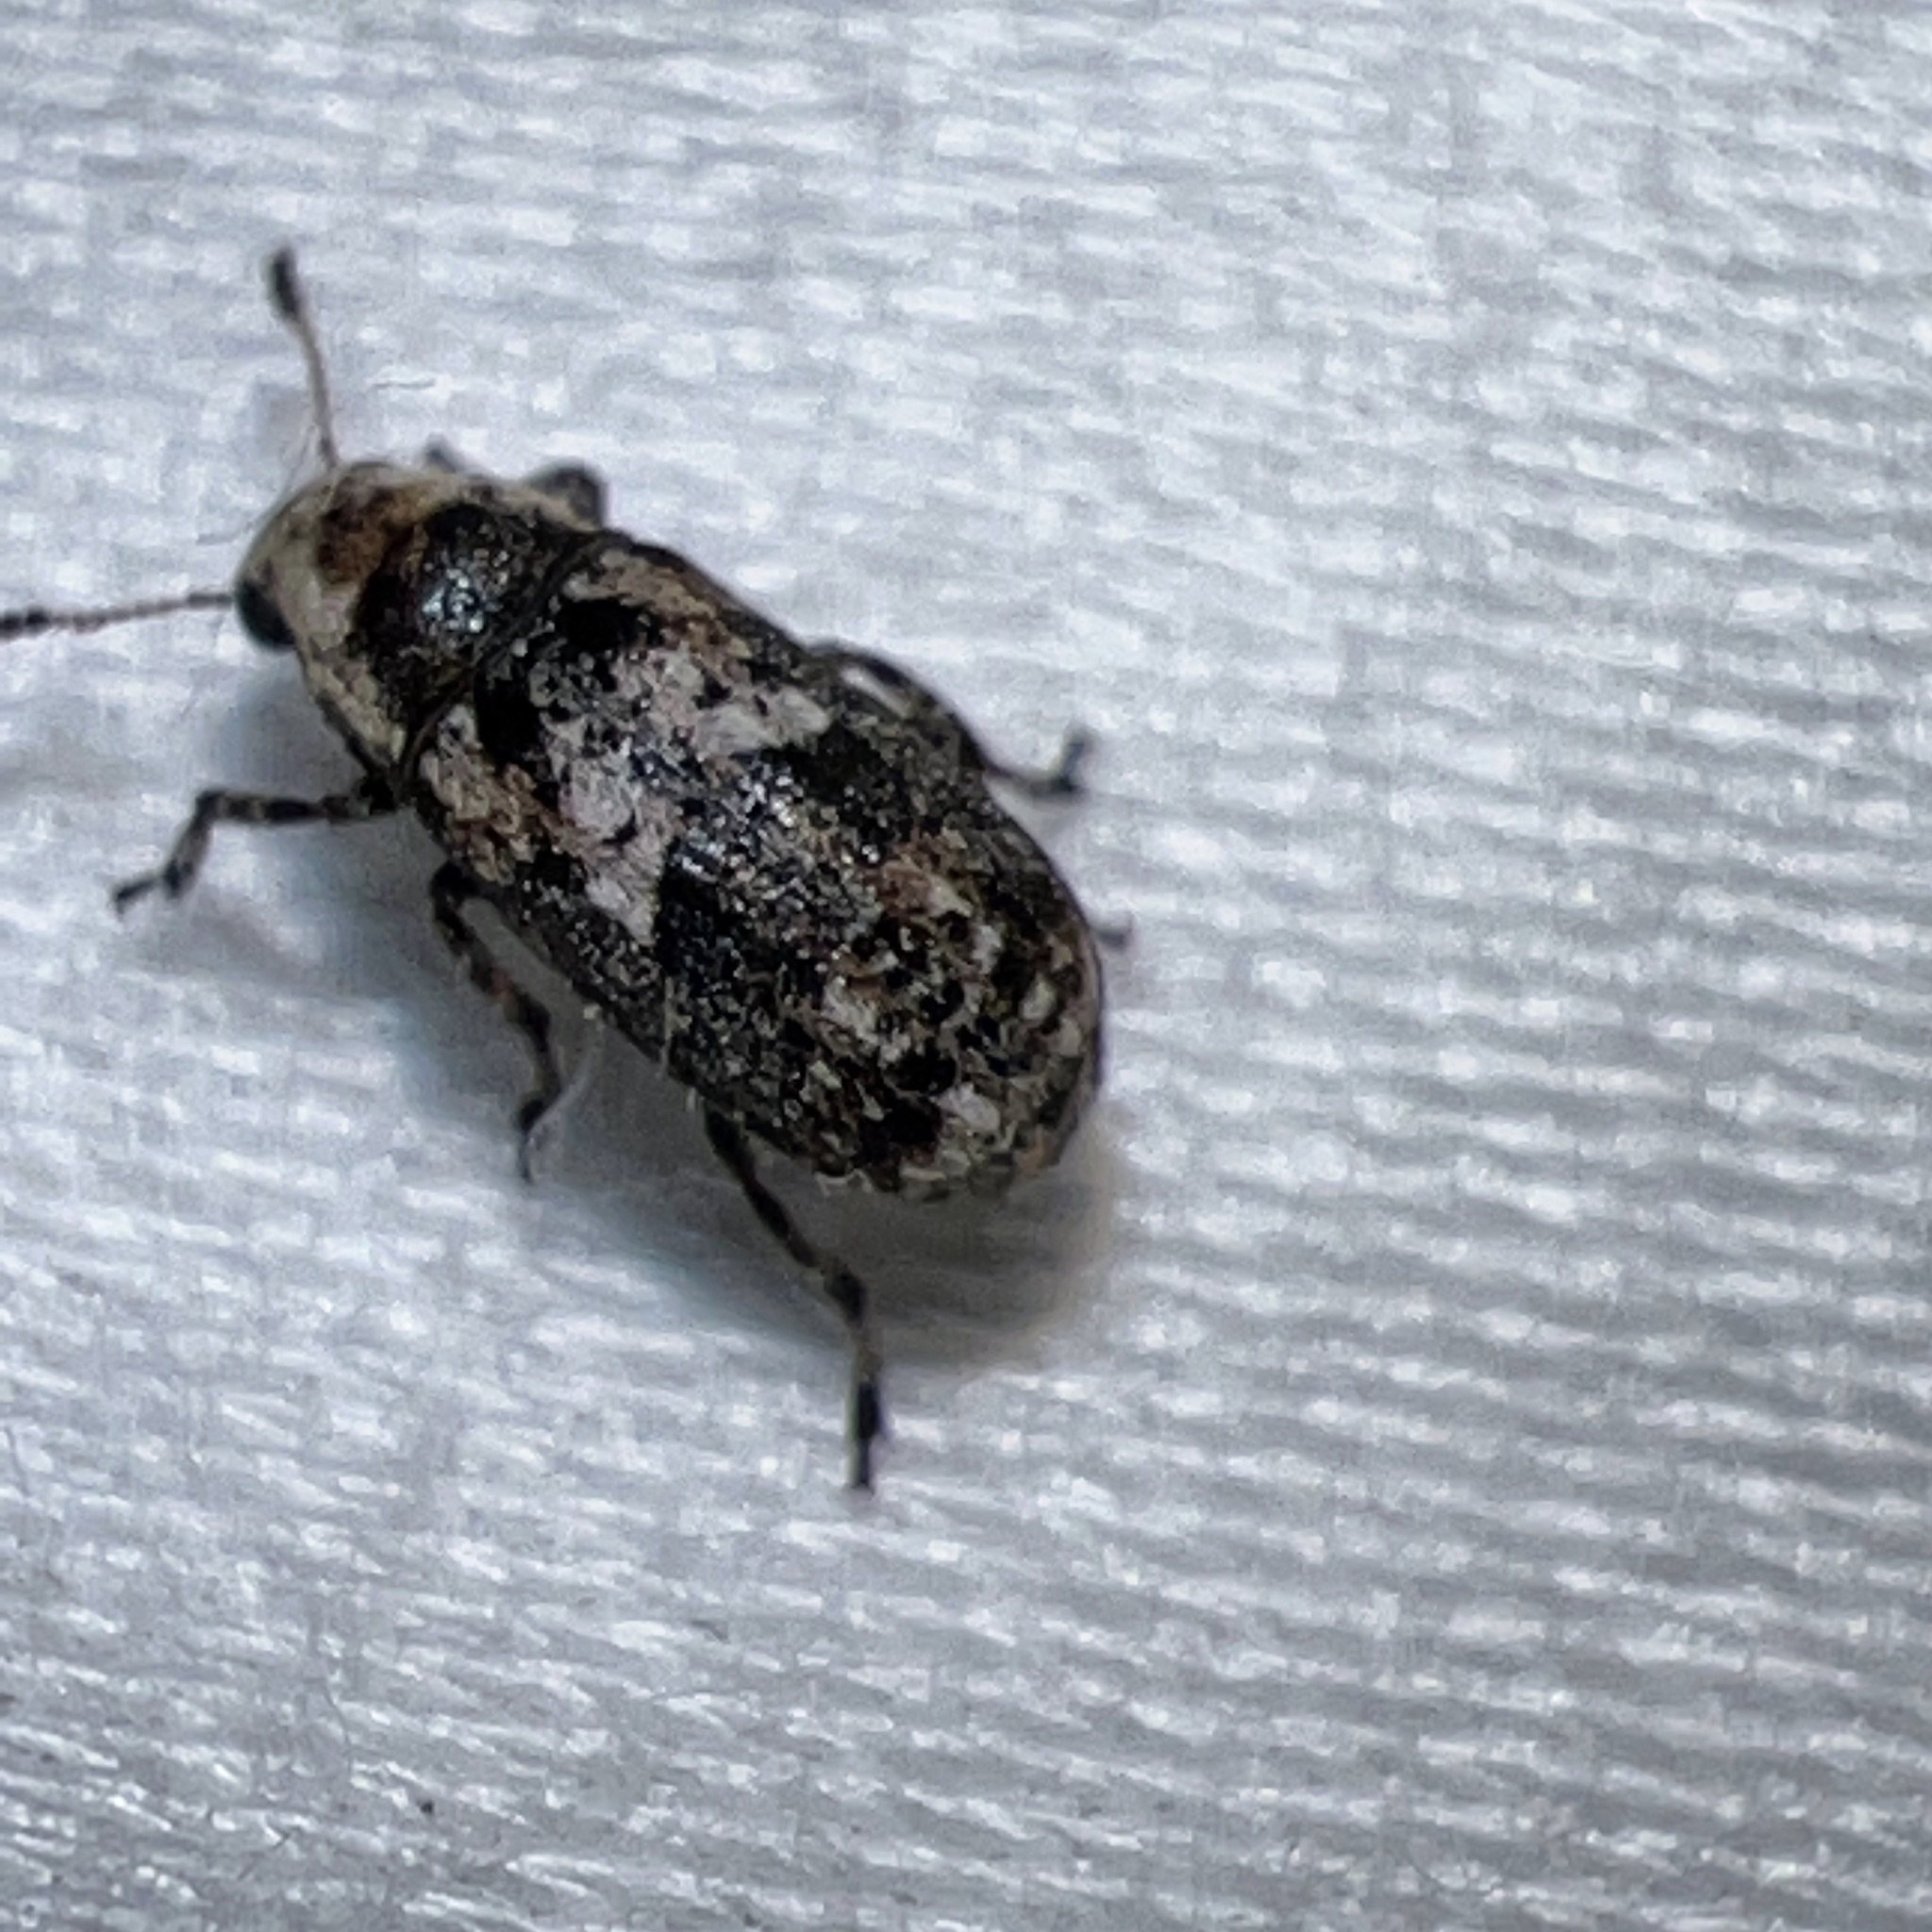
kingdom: Animalia
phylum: Arthropoda
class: Insecta
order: Coleoptera
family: Anthribidae
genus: Euparius
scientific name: Euparius paganus
